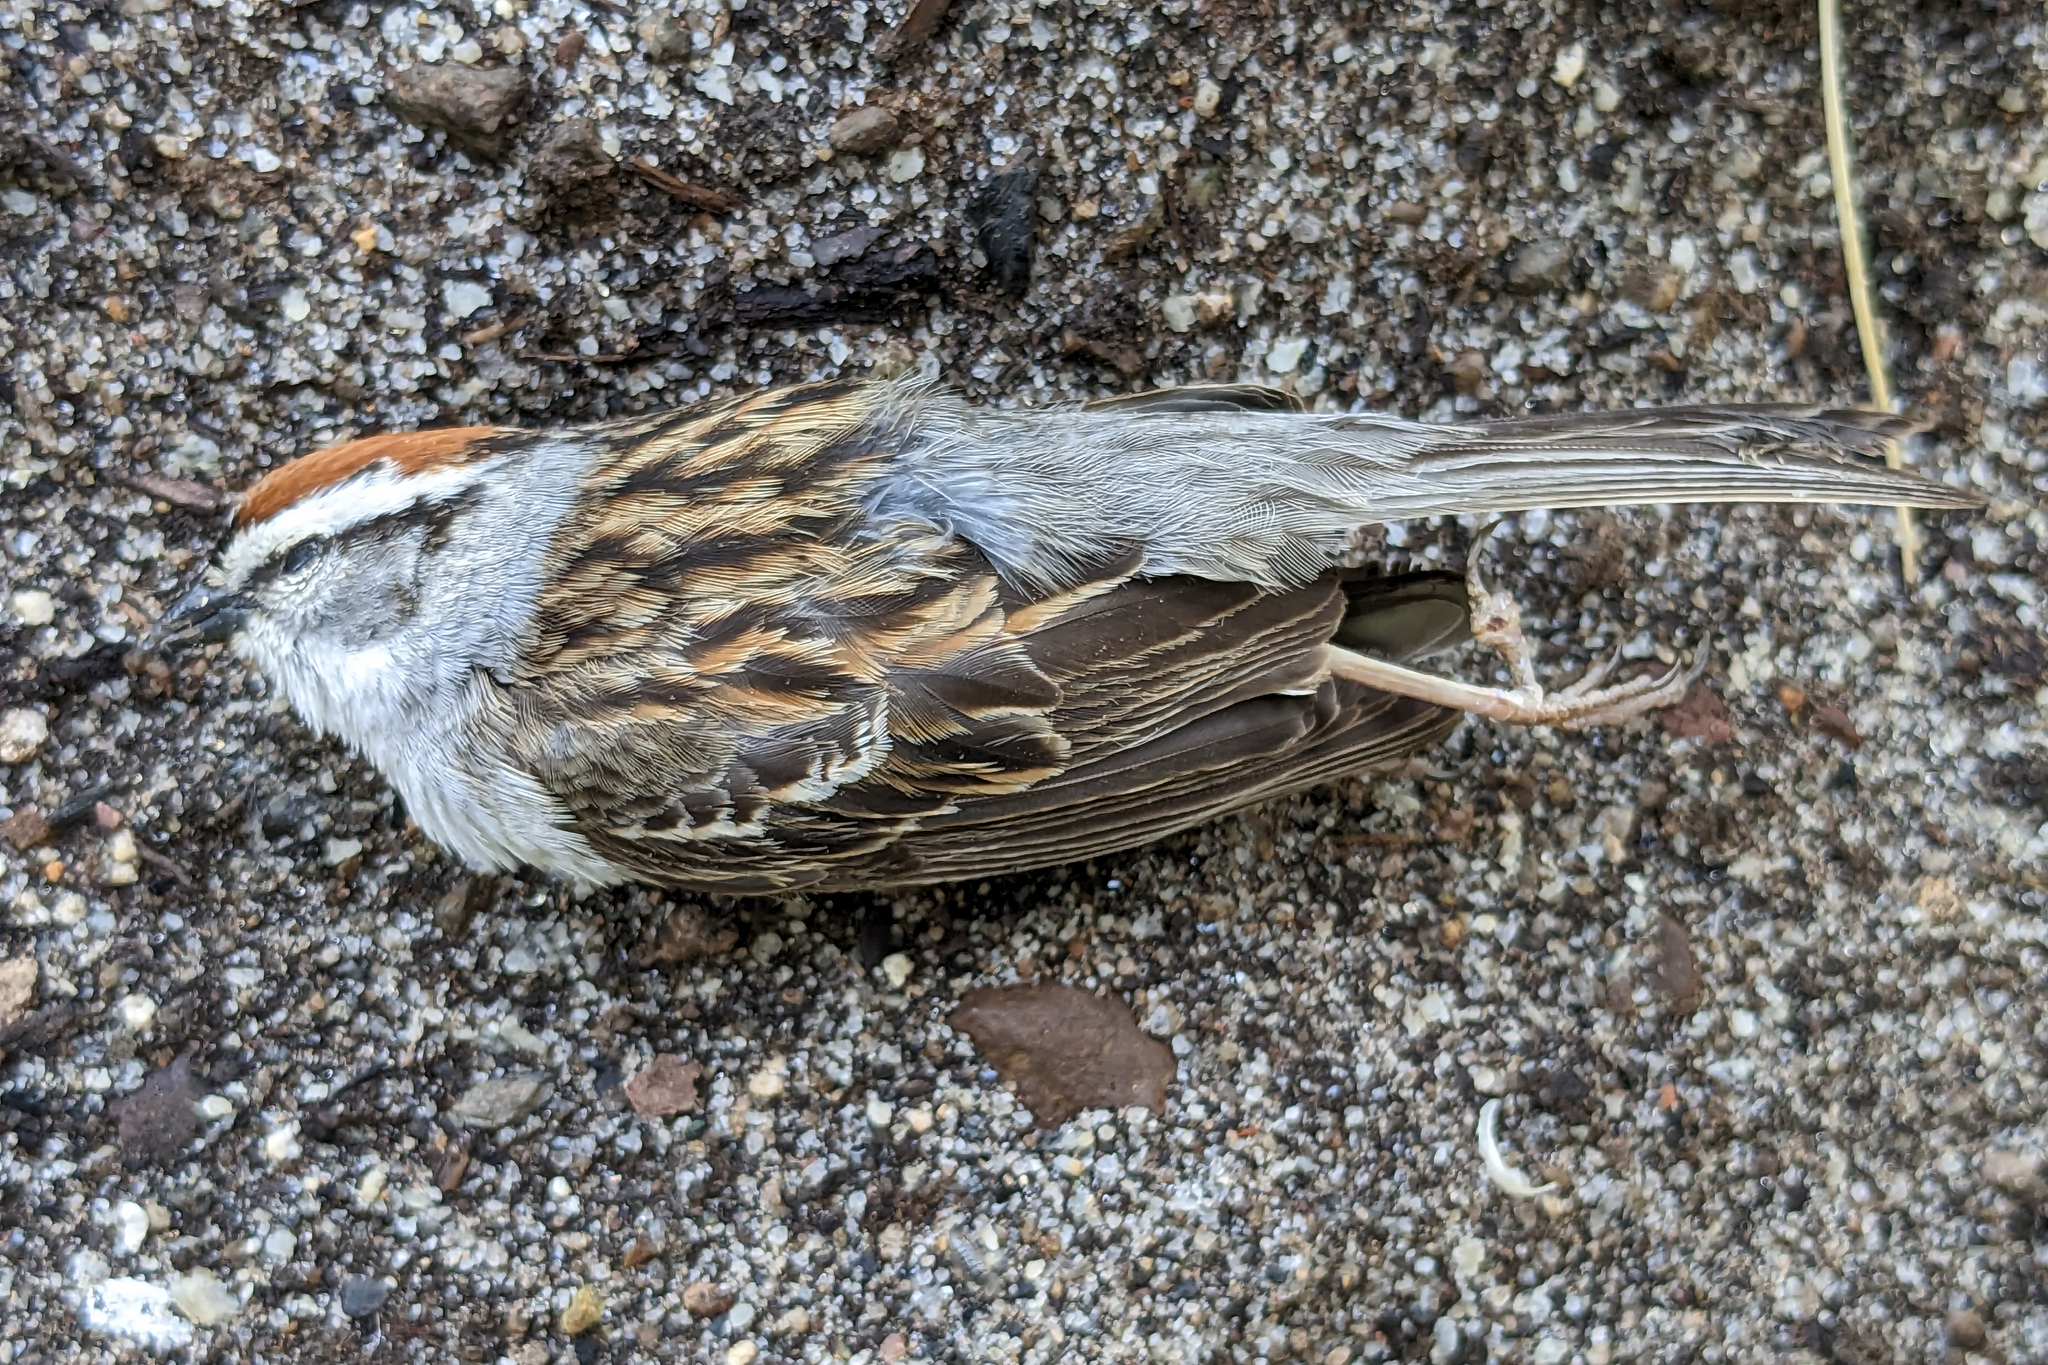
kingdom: Animalia
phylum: Chordata
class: Aves
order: Passeriformes
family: Passerellidae
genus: Spizella
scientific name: Spizella passerina
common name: Chipping sparrow
